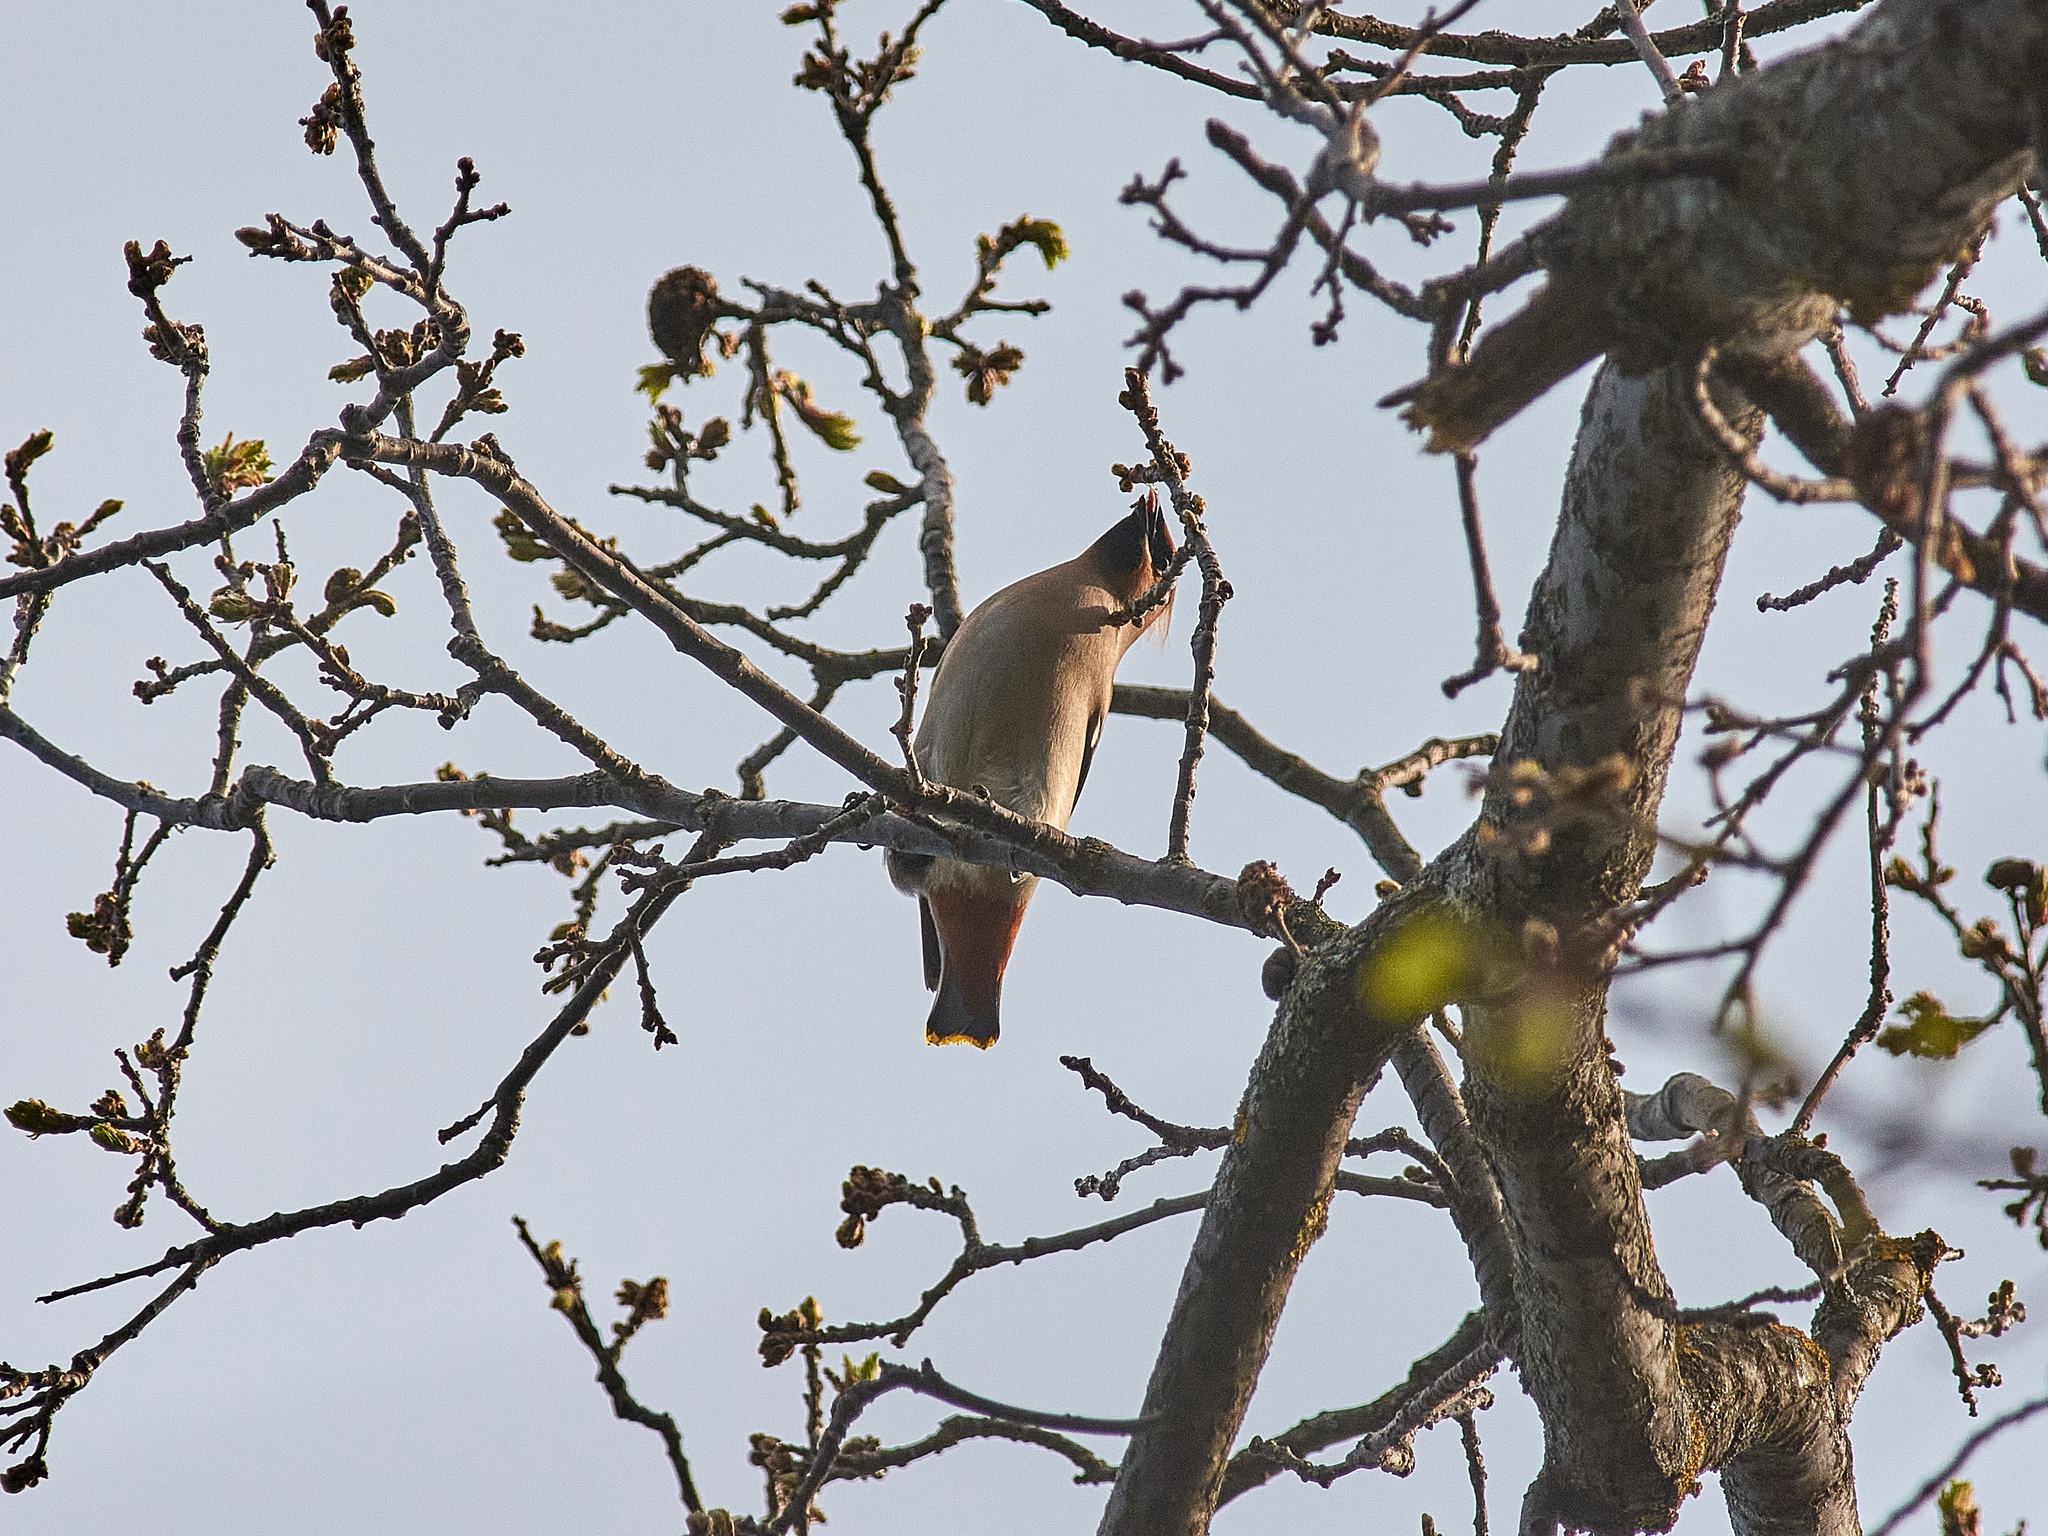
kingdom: Animalia
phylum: Chordata
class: Aves
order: Passeriformes
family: Bombycillidae
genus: Bombycilla
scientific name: Bombycilla garrulus
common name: Bohemian waxwing
